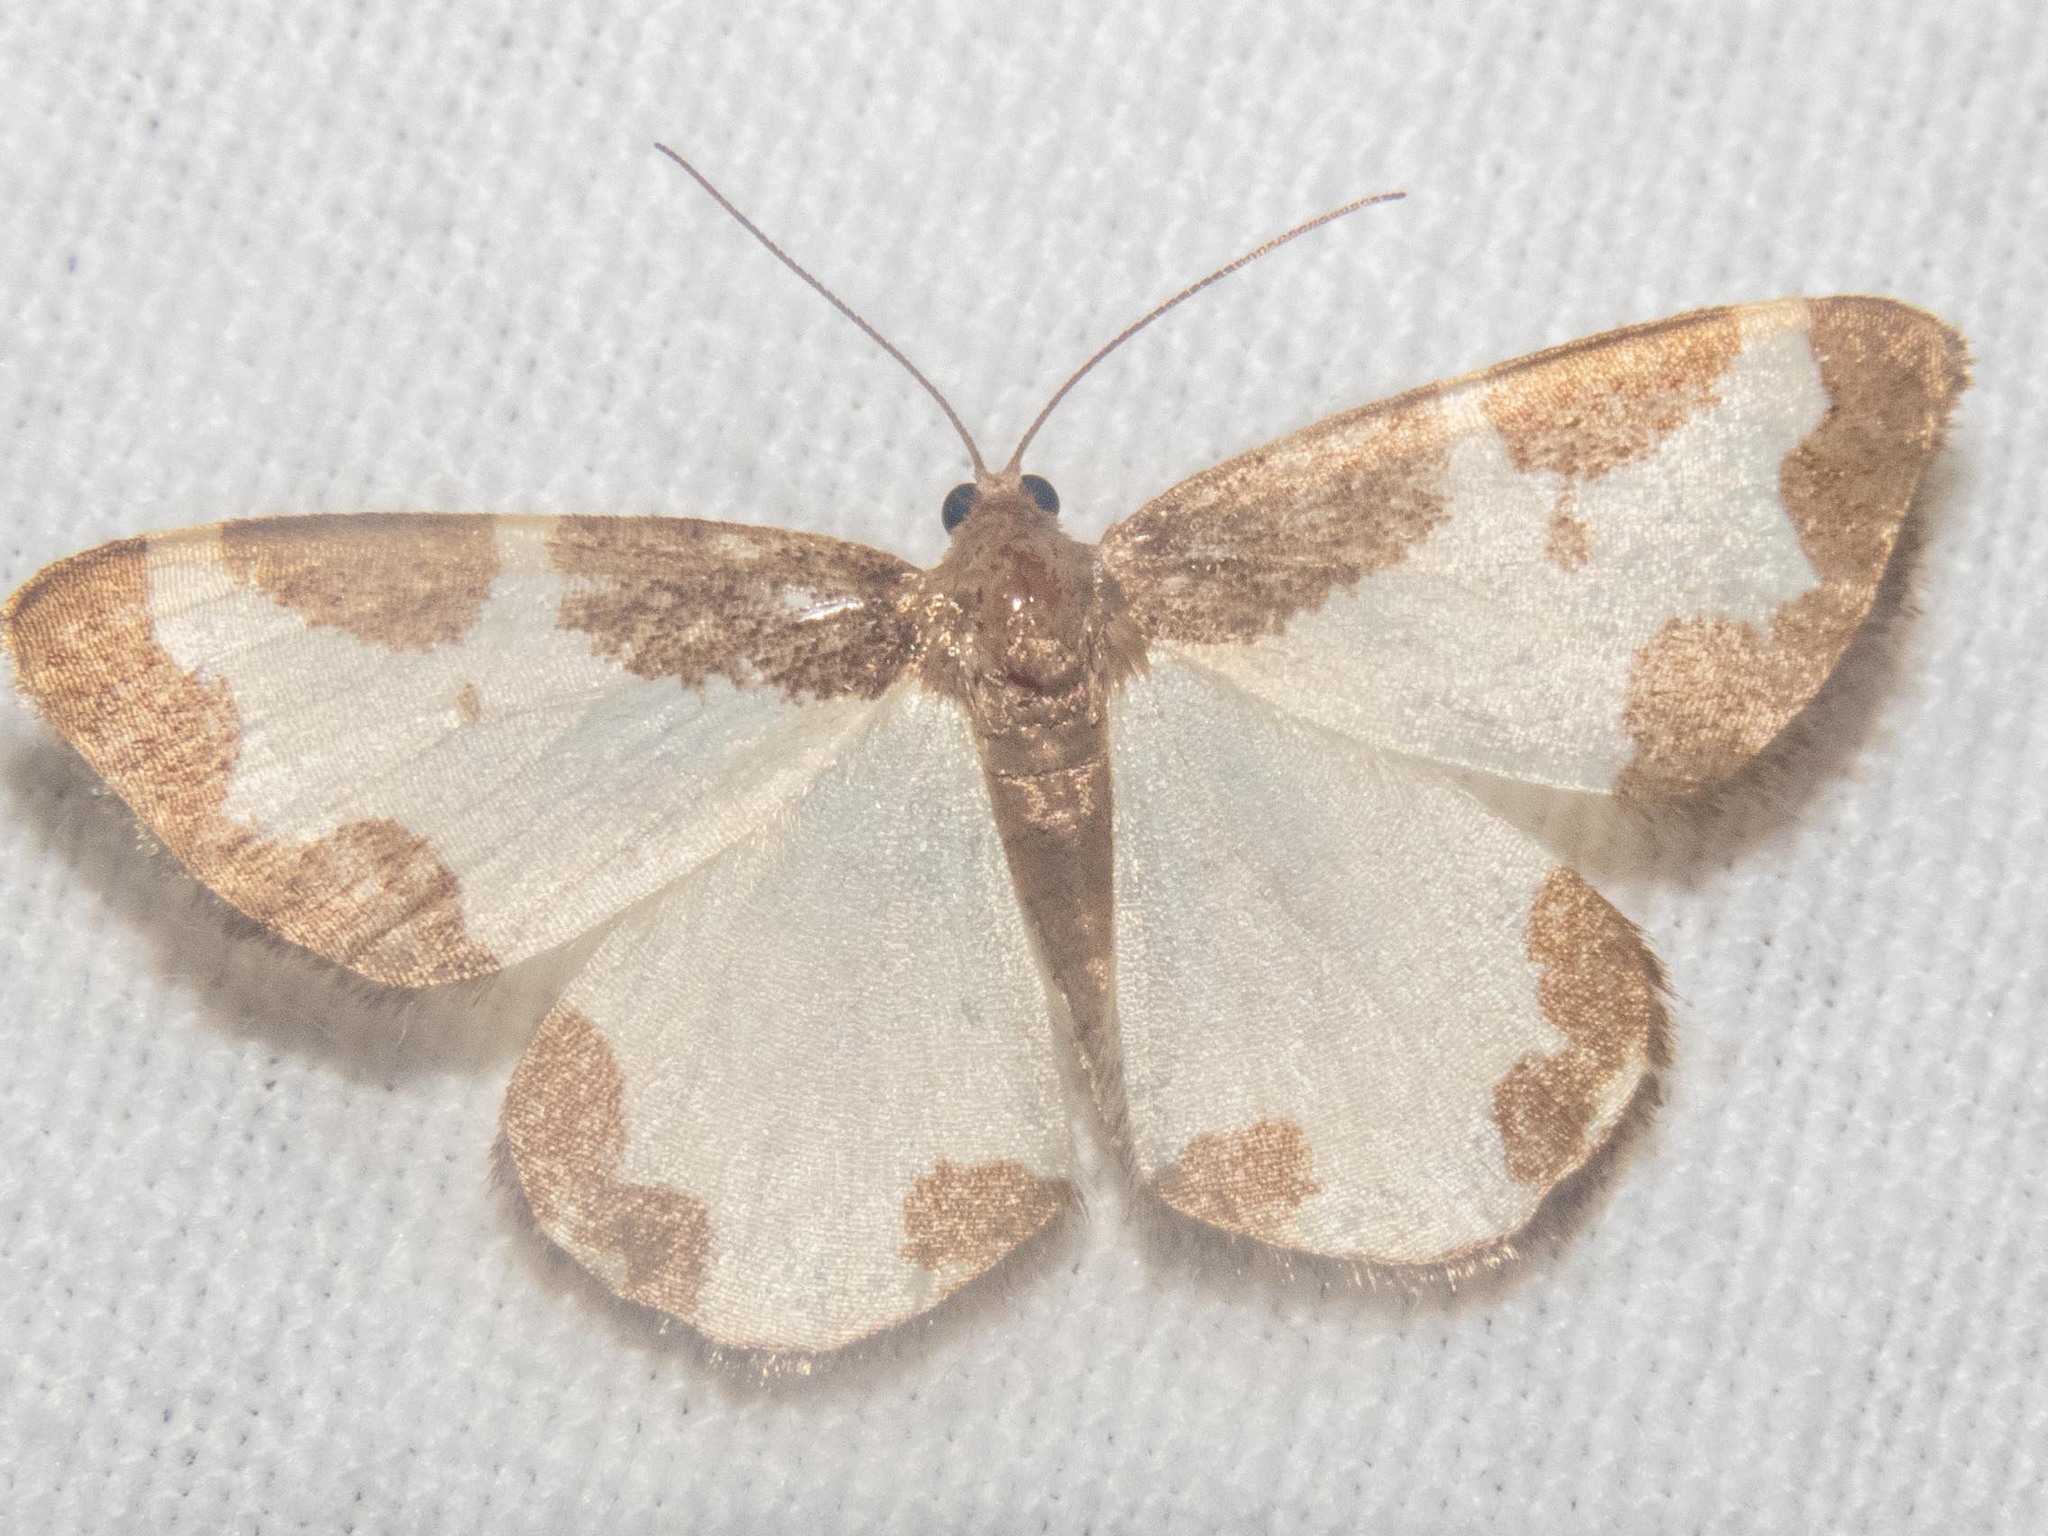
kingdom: Animalia
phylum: Arthropoda
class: Insecta
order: Lepidoptera
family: Geometridae
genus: Lomaspilis
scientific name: Lomaspilis marginata
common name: Clouded border
